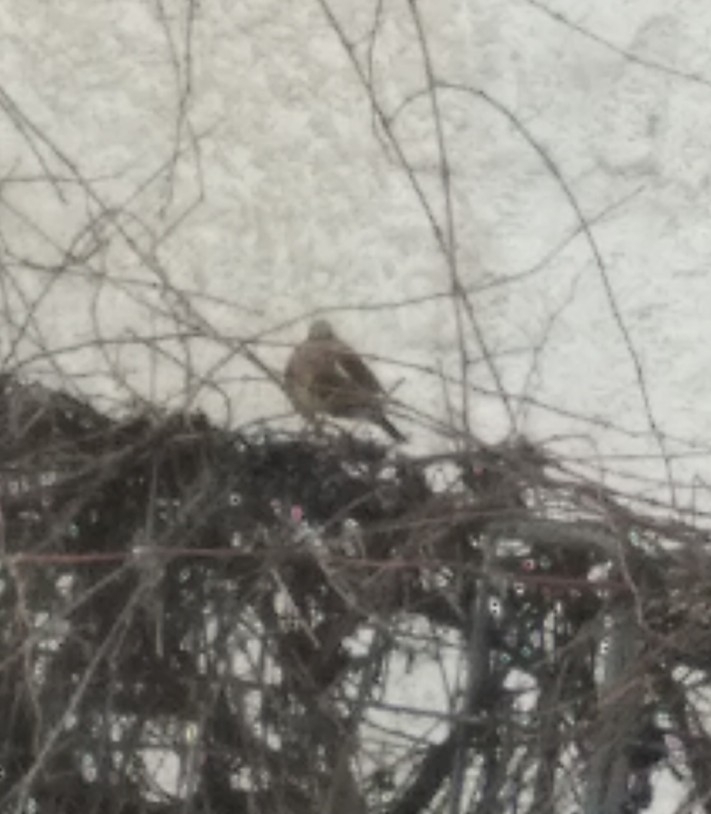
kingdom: Animalia
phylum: Chordata
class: Aves
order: Passeriformes
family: Turdidae
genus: Turdus
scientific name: Turdus pilaris
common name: Fieldfare
